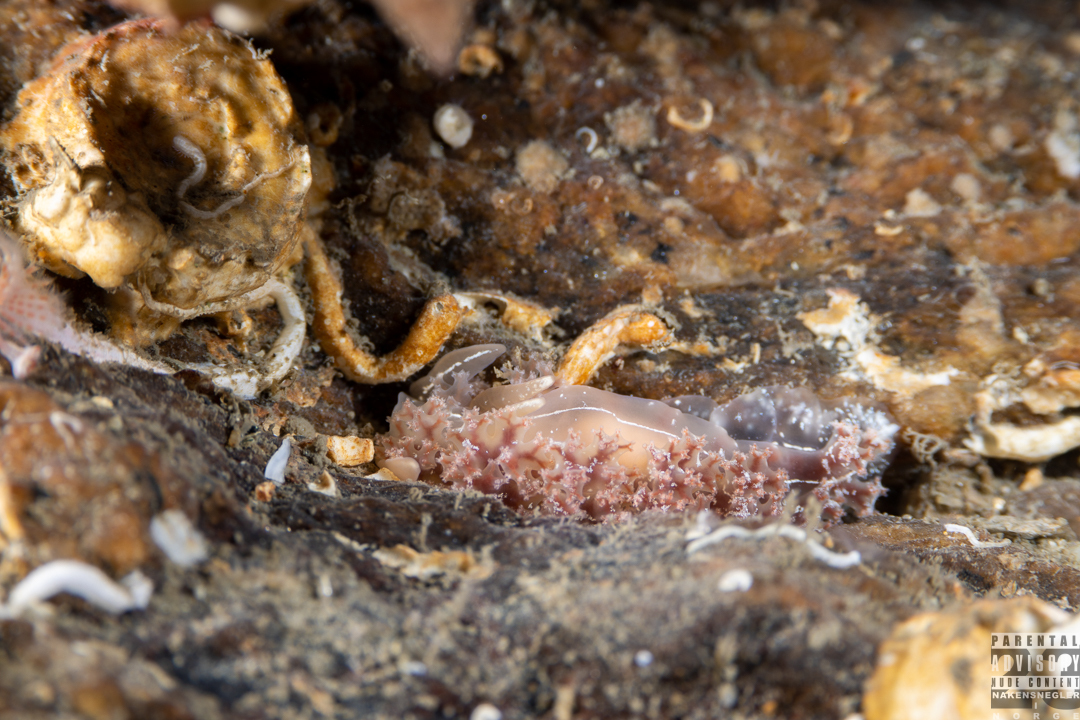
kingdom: Animalia
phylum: Mollusca
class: Gastropoda
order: Nudibranchia
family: Heroidae
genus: Hero
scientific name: Hero formosa
